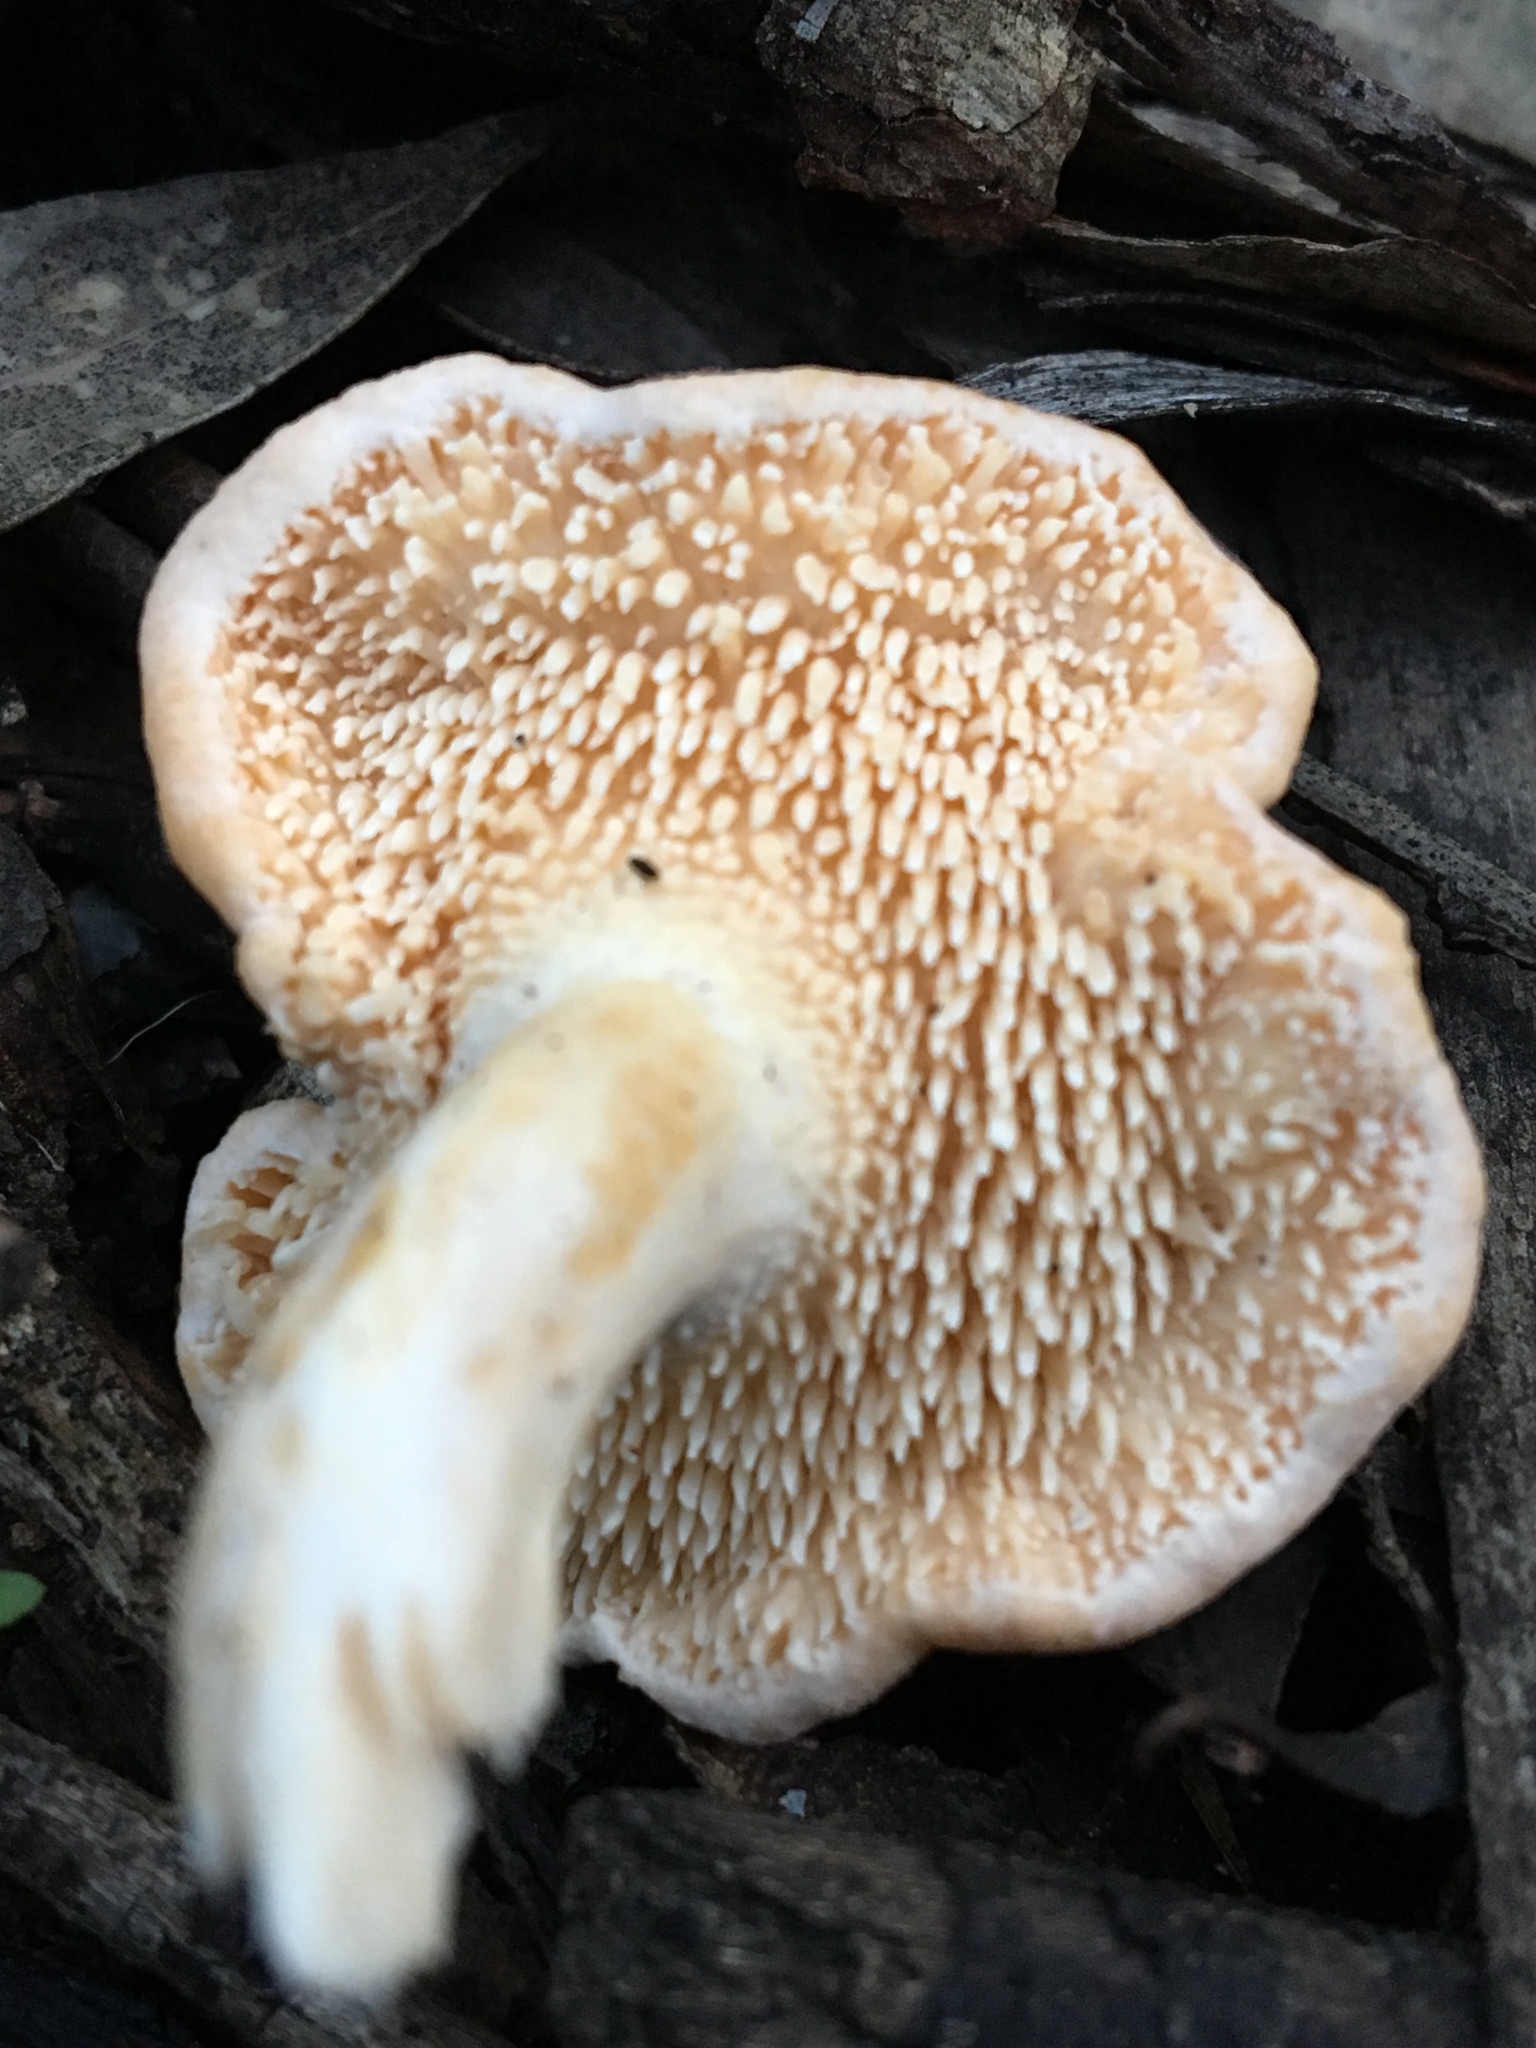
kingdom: Fungi
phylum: Basidiomycota
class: Agaricomycetes
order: Cantharellales
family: Hydnaceae
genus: Hydnum
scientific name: Hydnum repandum
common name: Wood hedgehog
